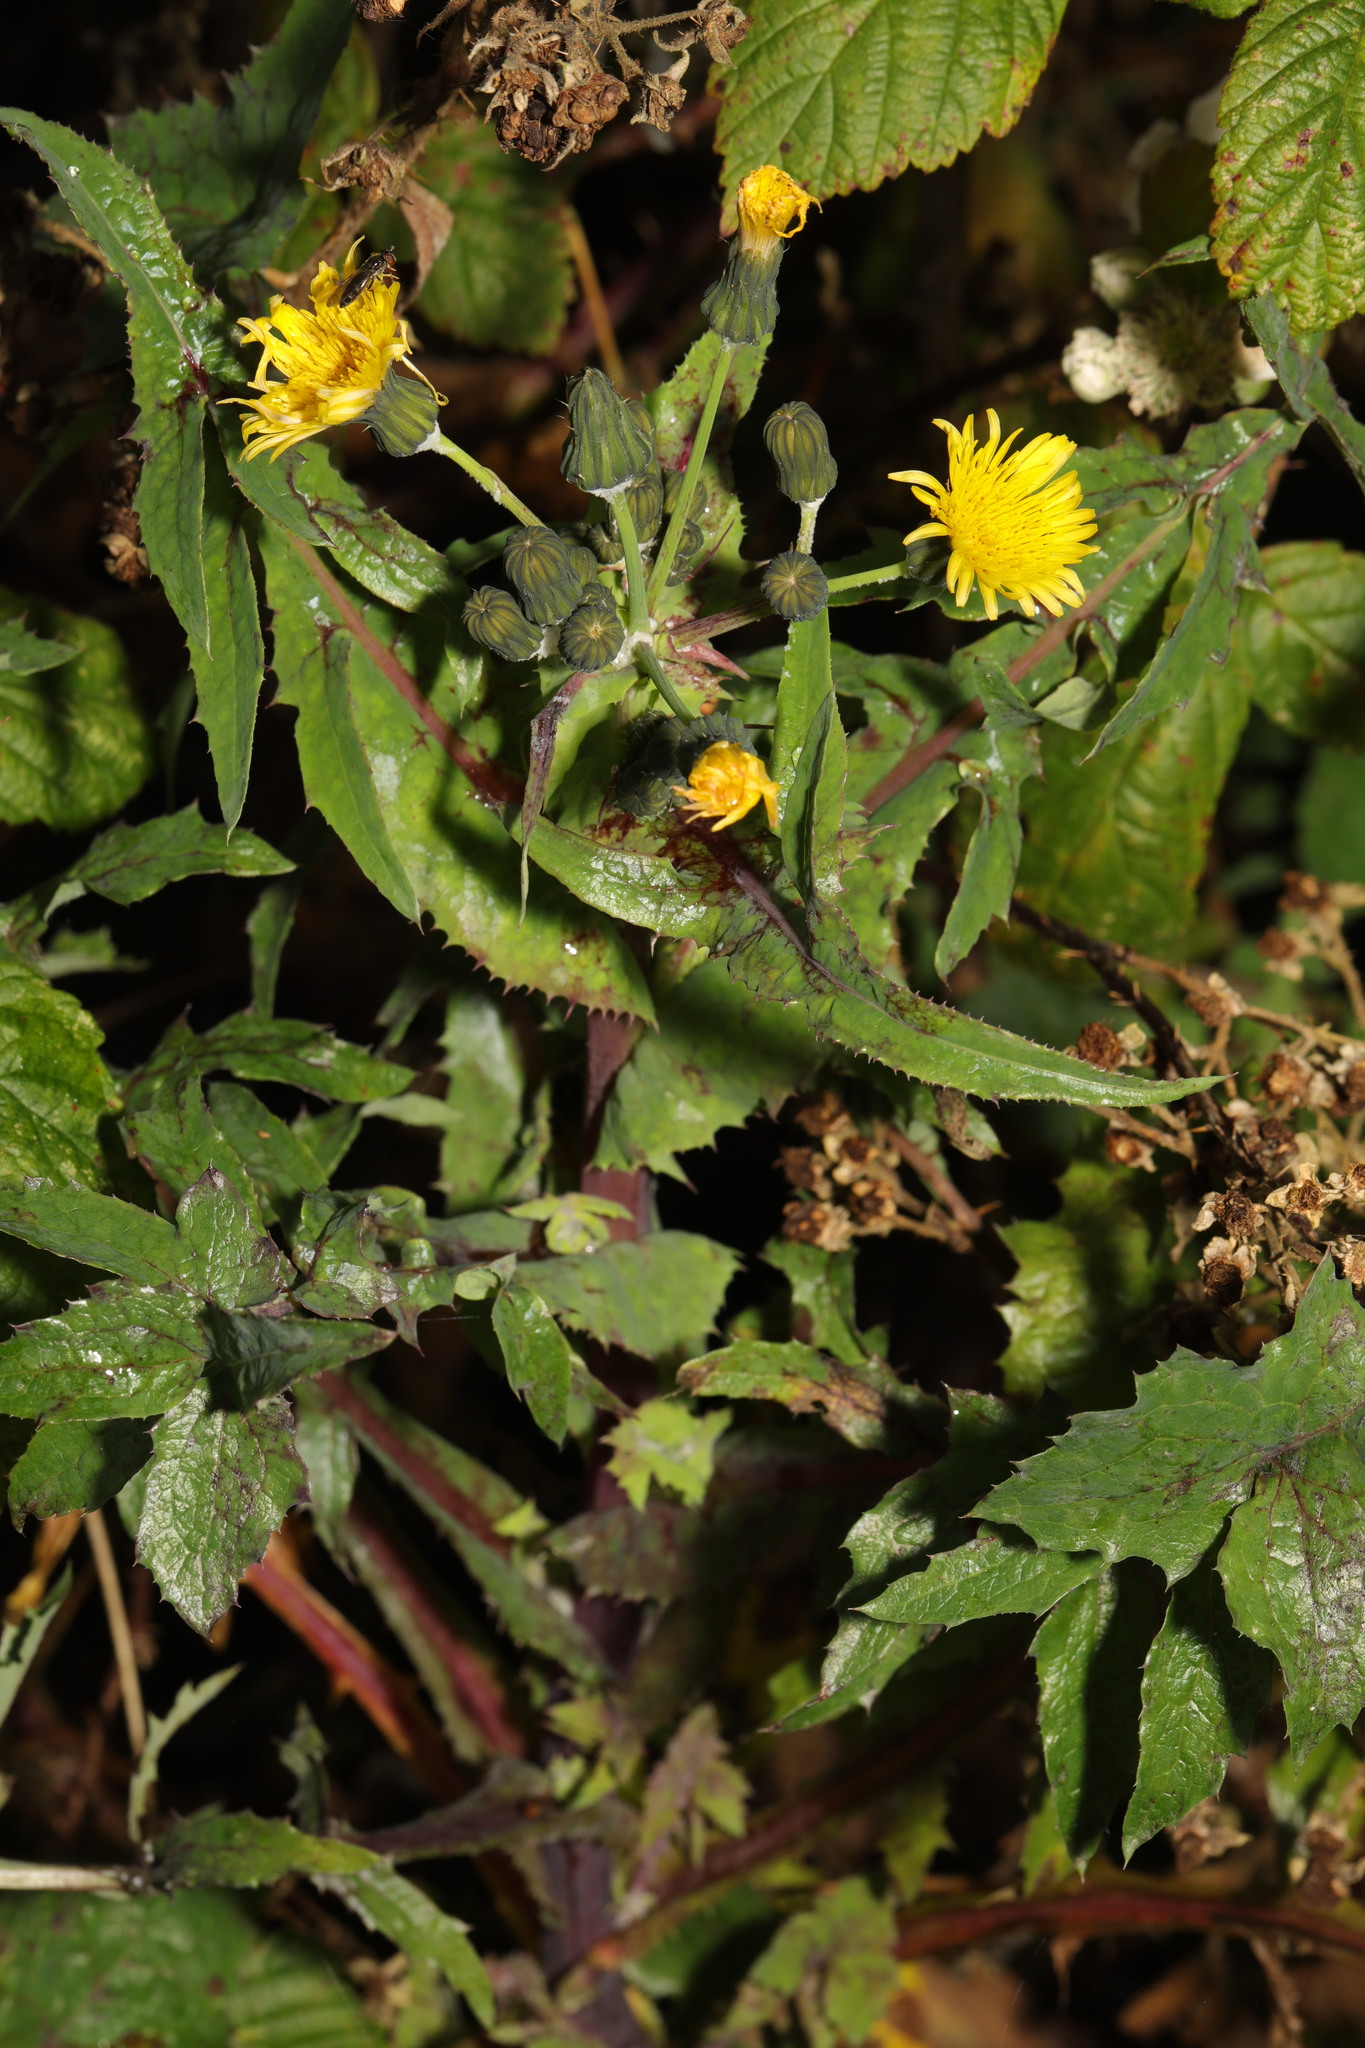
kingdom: Plantae
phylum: Tracheophyta
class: Magnoliopsida
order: Asterales
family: Asteraceae
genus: Sonchus
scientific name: Sonchus oleraceus
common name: Common sowthistle
